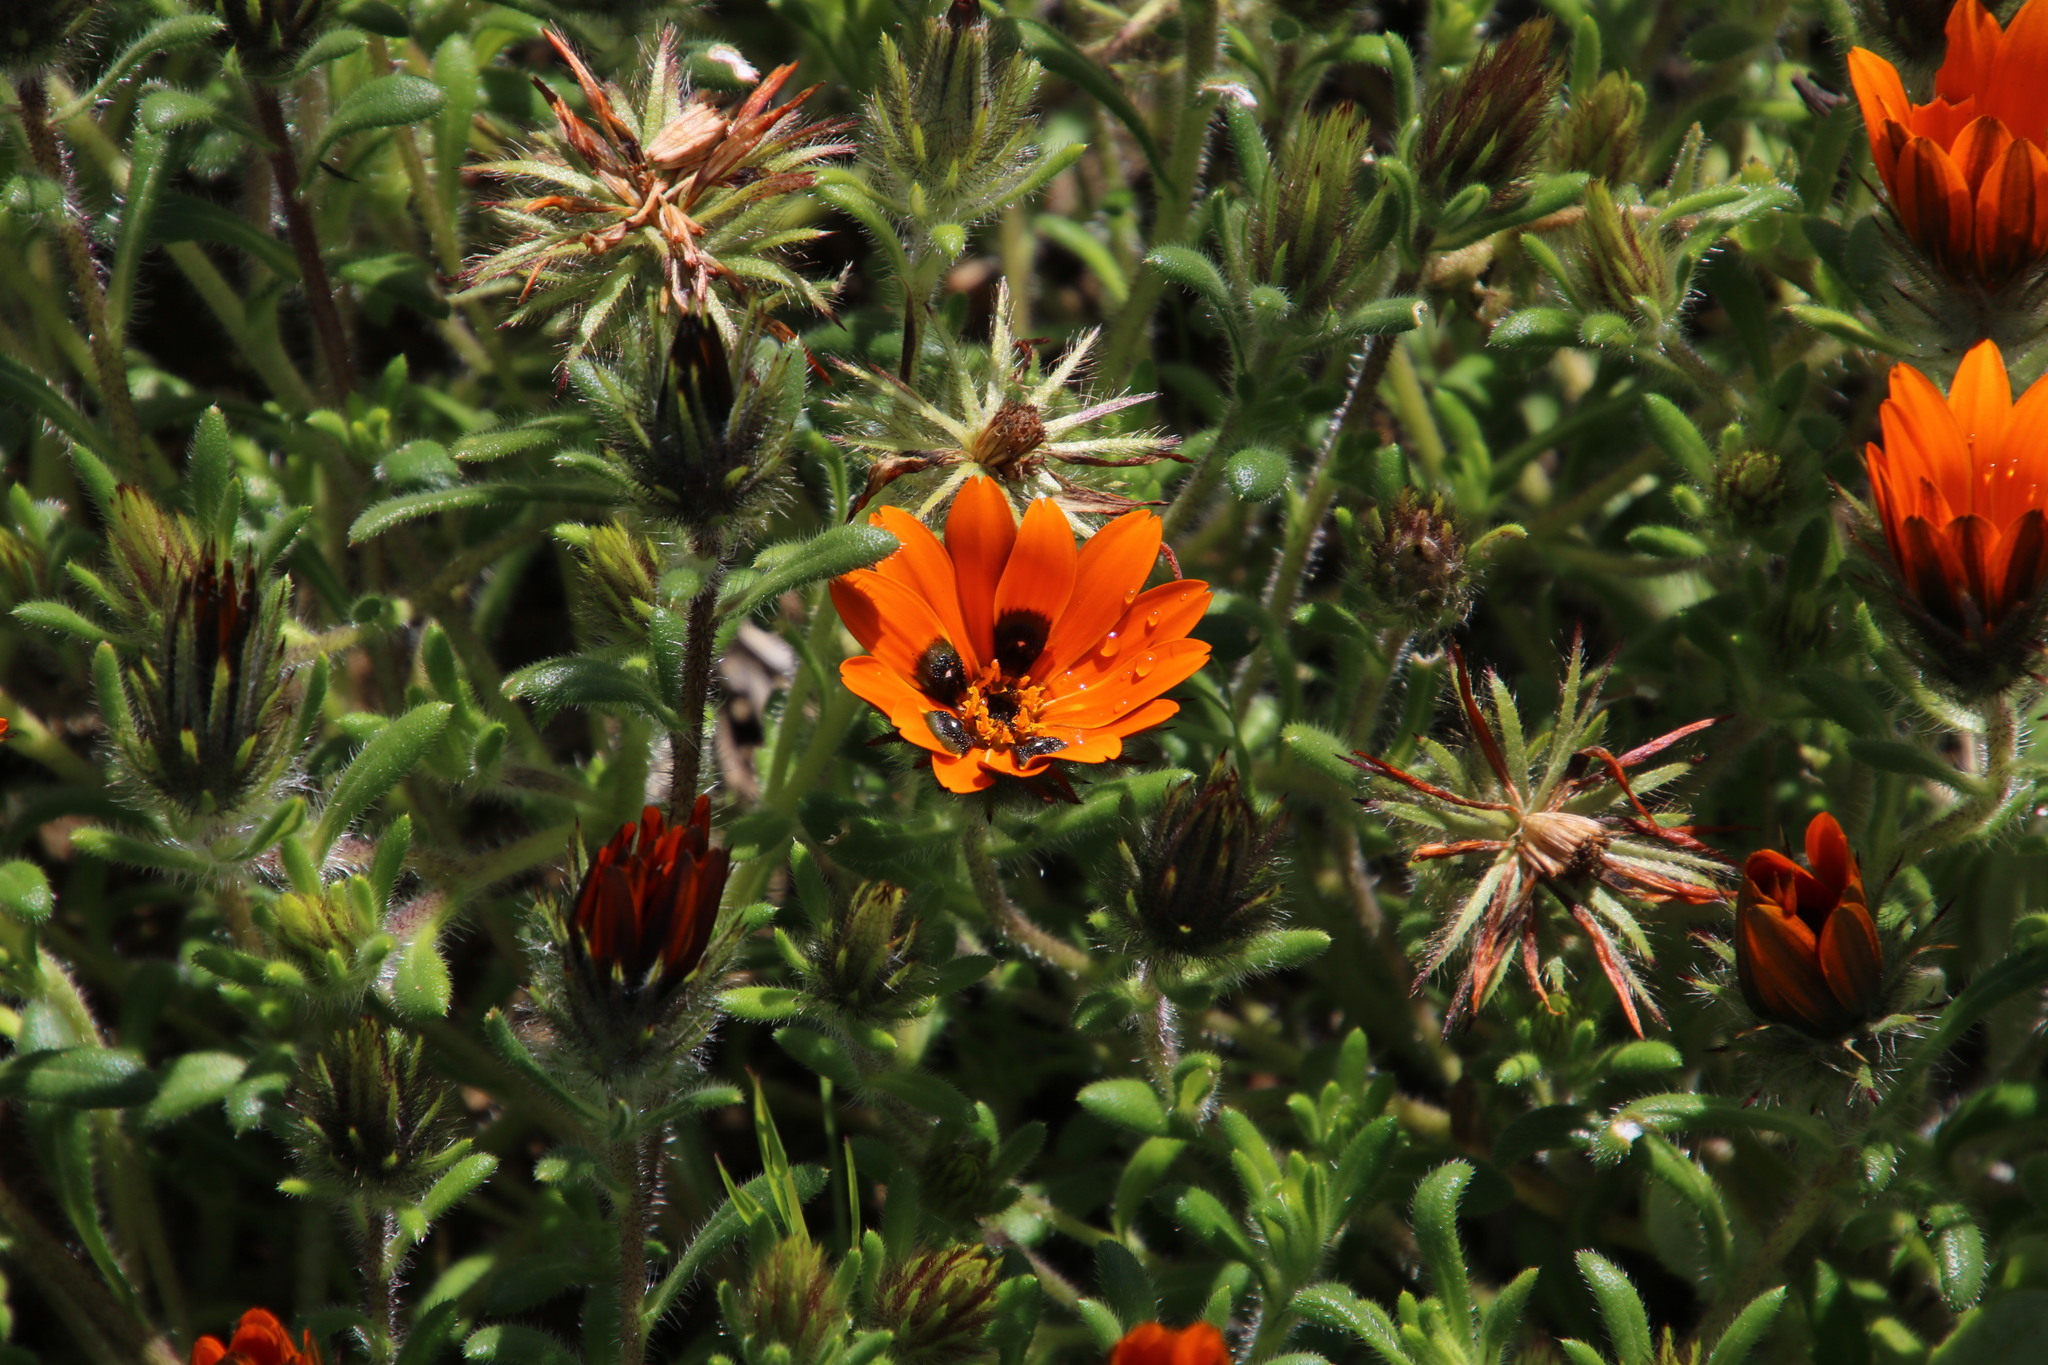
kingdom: Plantae
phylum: Tracheophyta
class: Magnoliopsida
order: Asterales
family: Asteraceae
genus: Gorteria
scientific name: Gorteria diffusa
